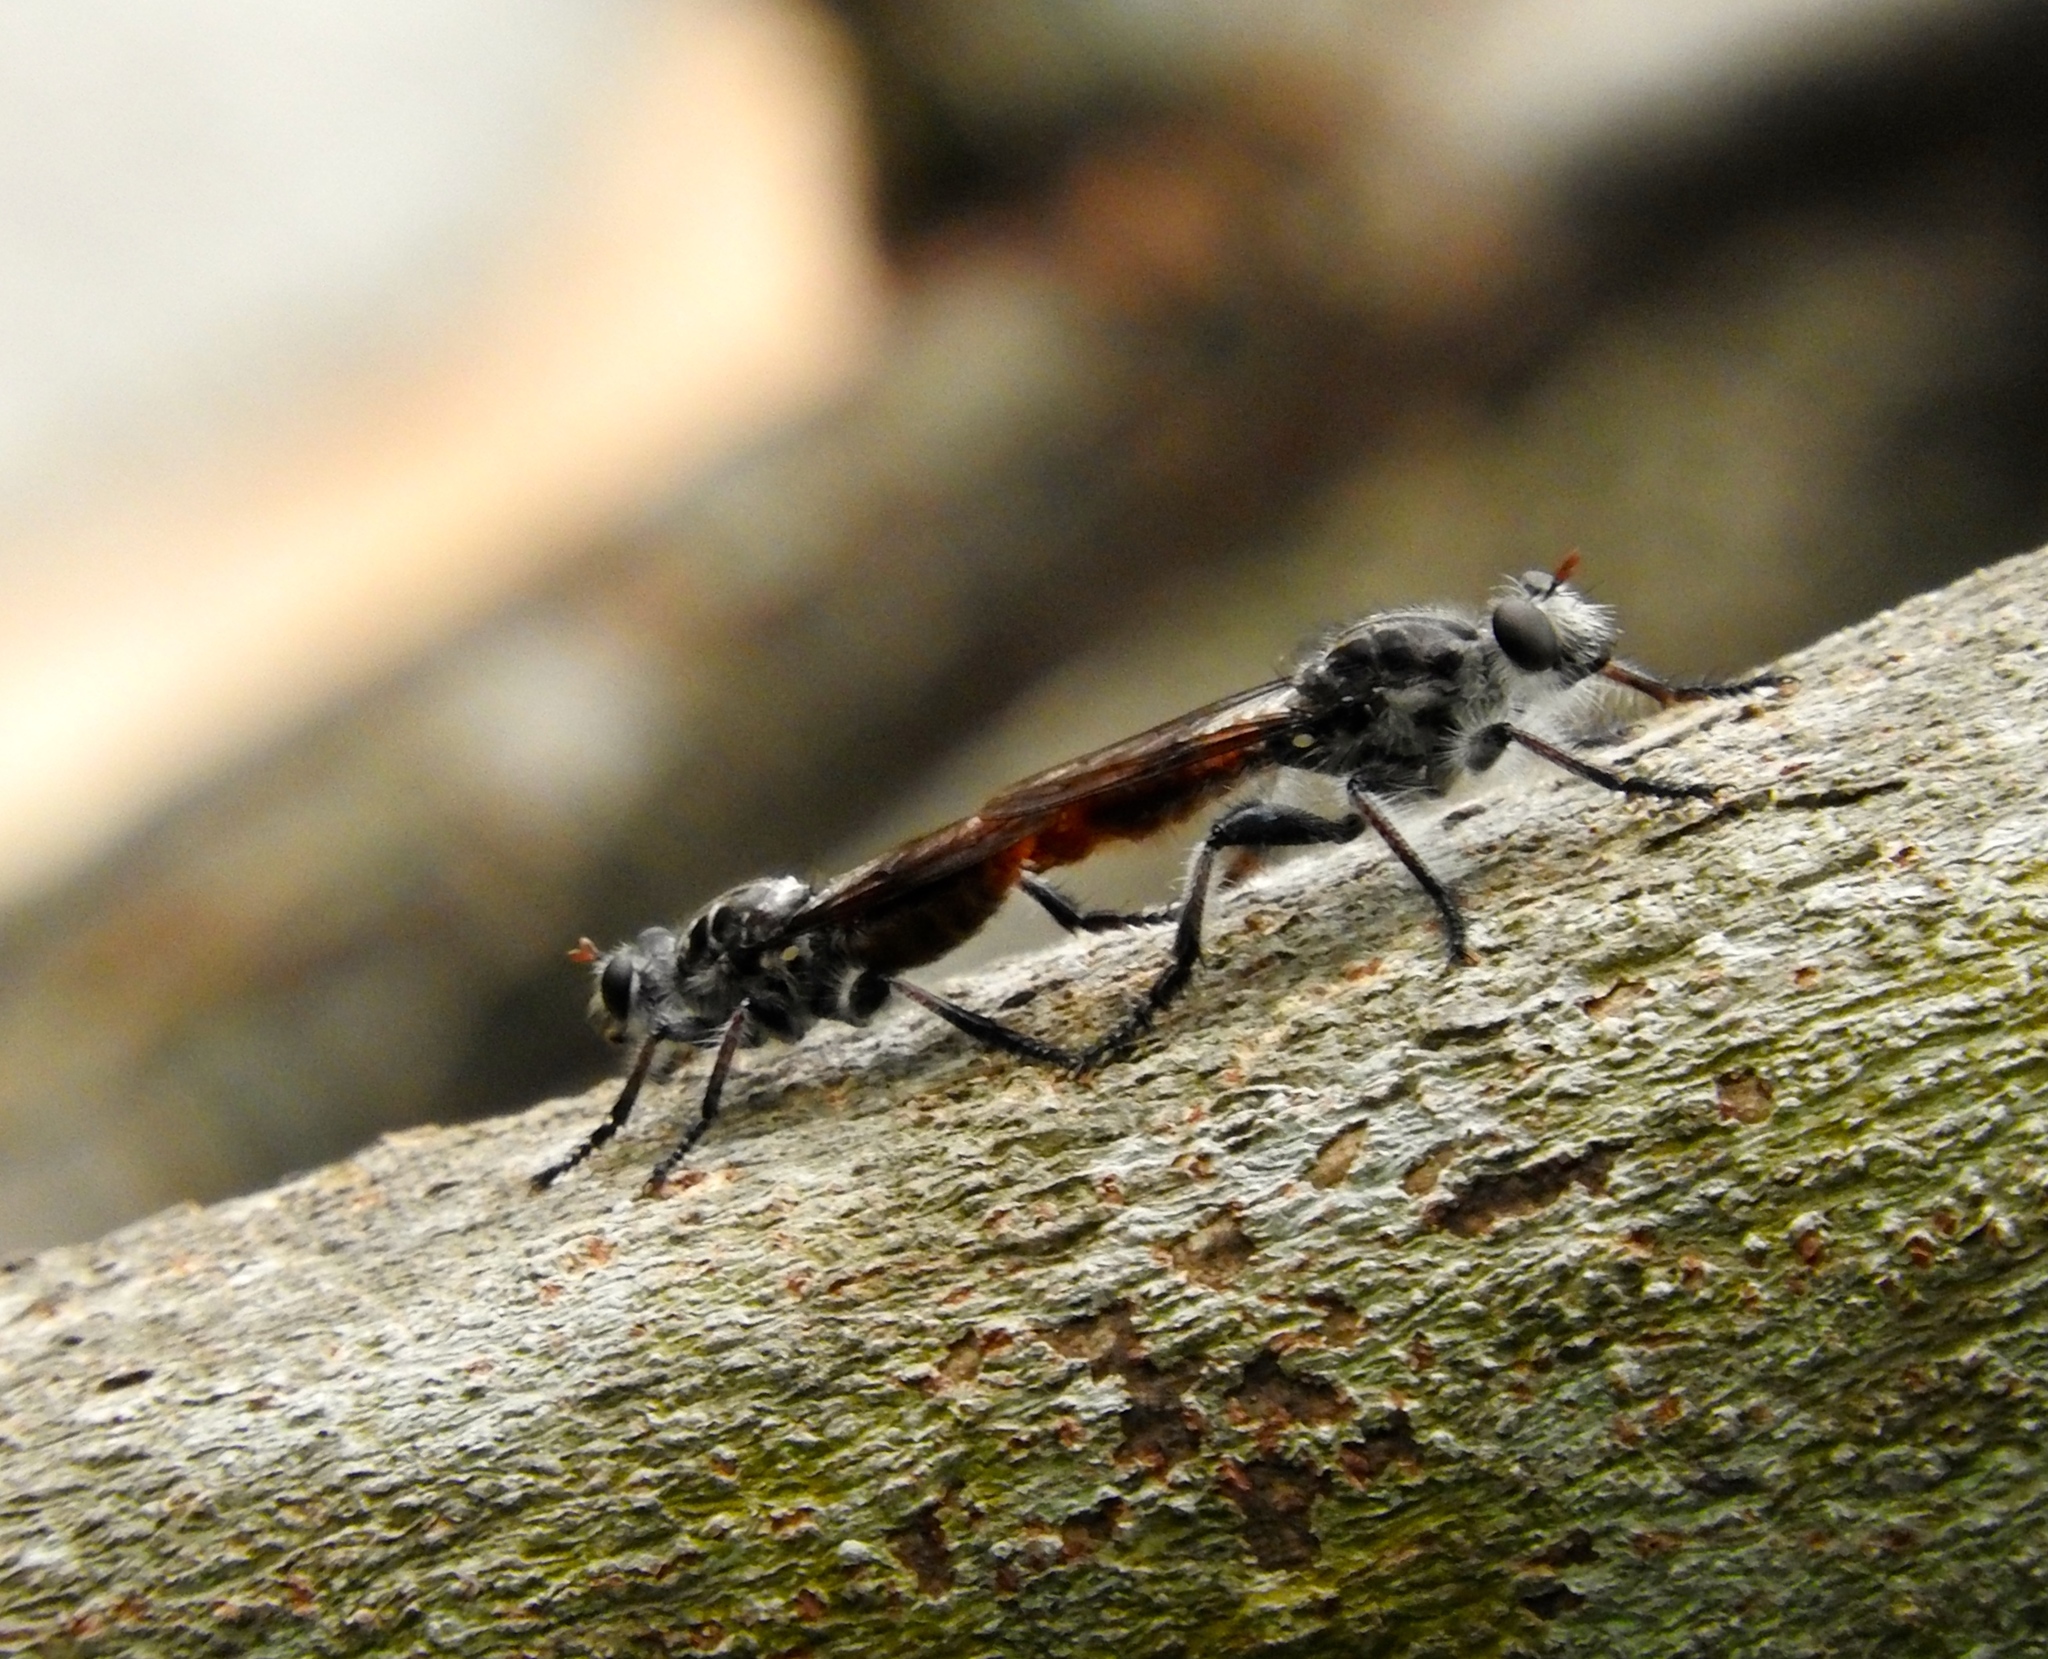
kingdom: Animalia
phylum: Arthropoda
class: Insecta
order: Diptera
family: Asilidae
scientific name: Asilidae
